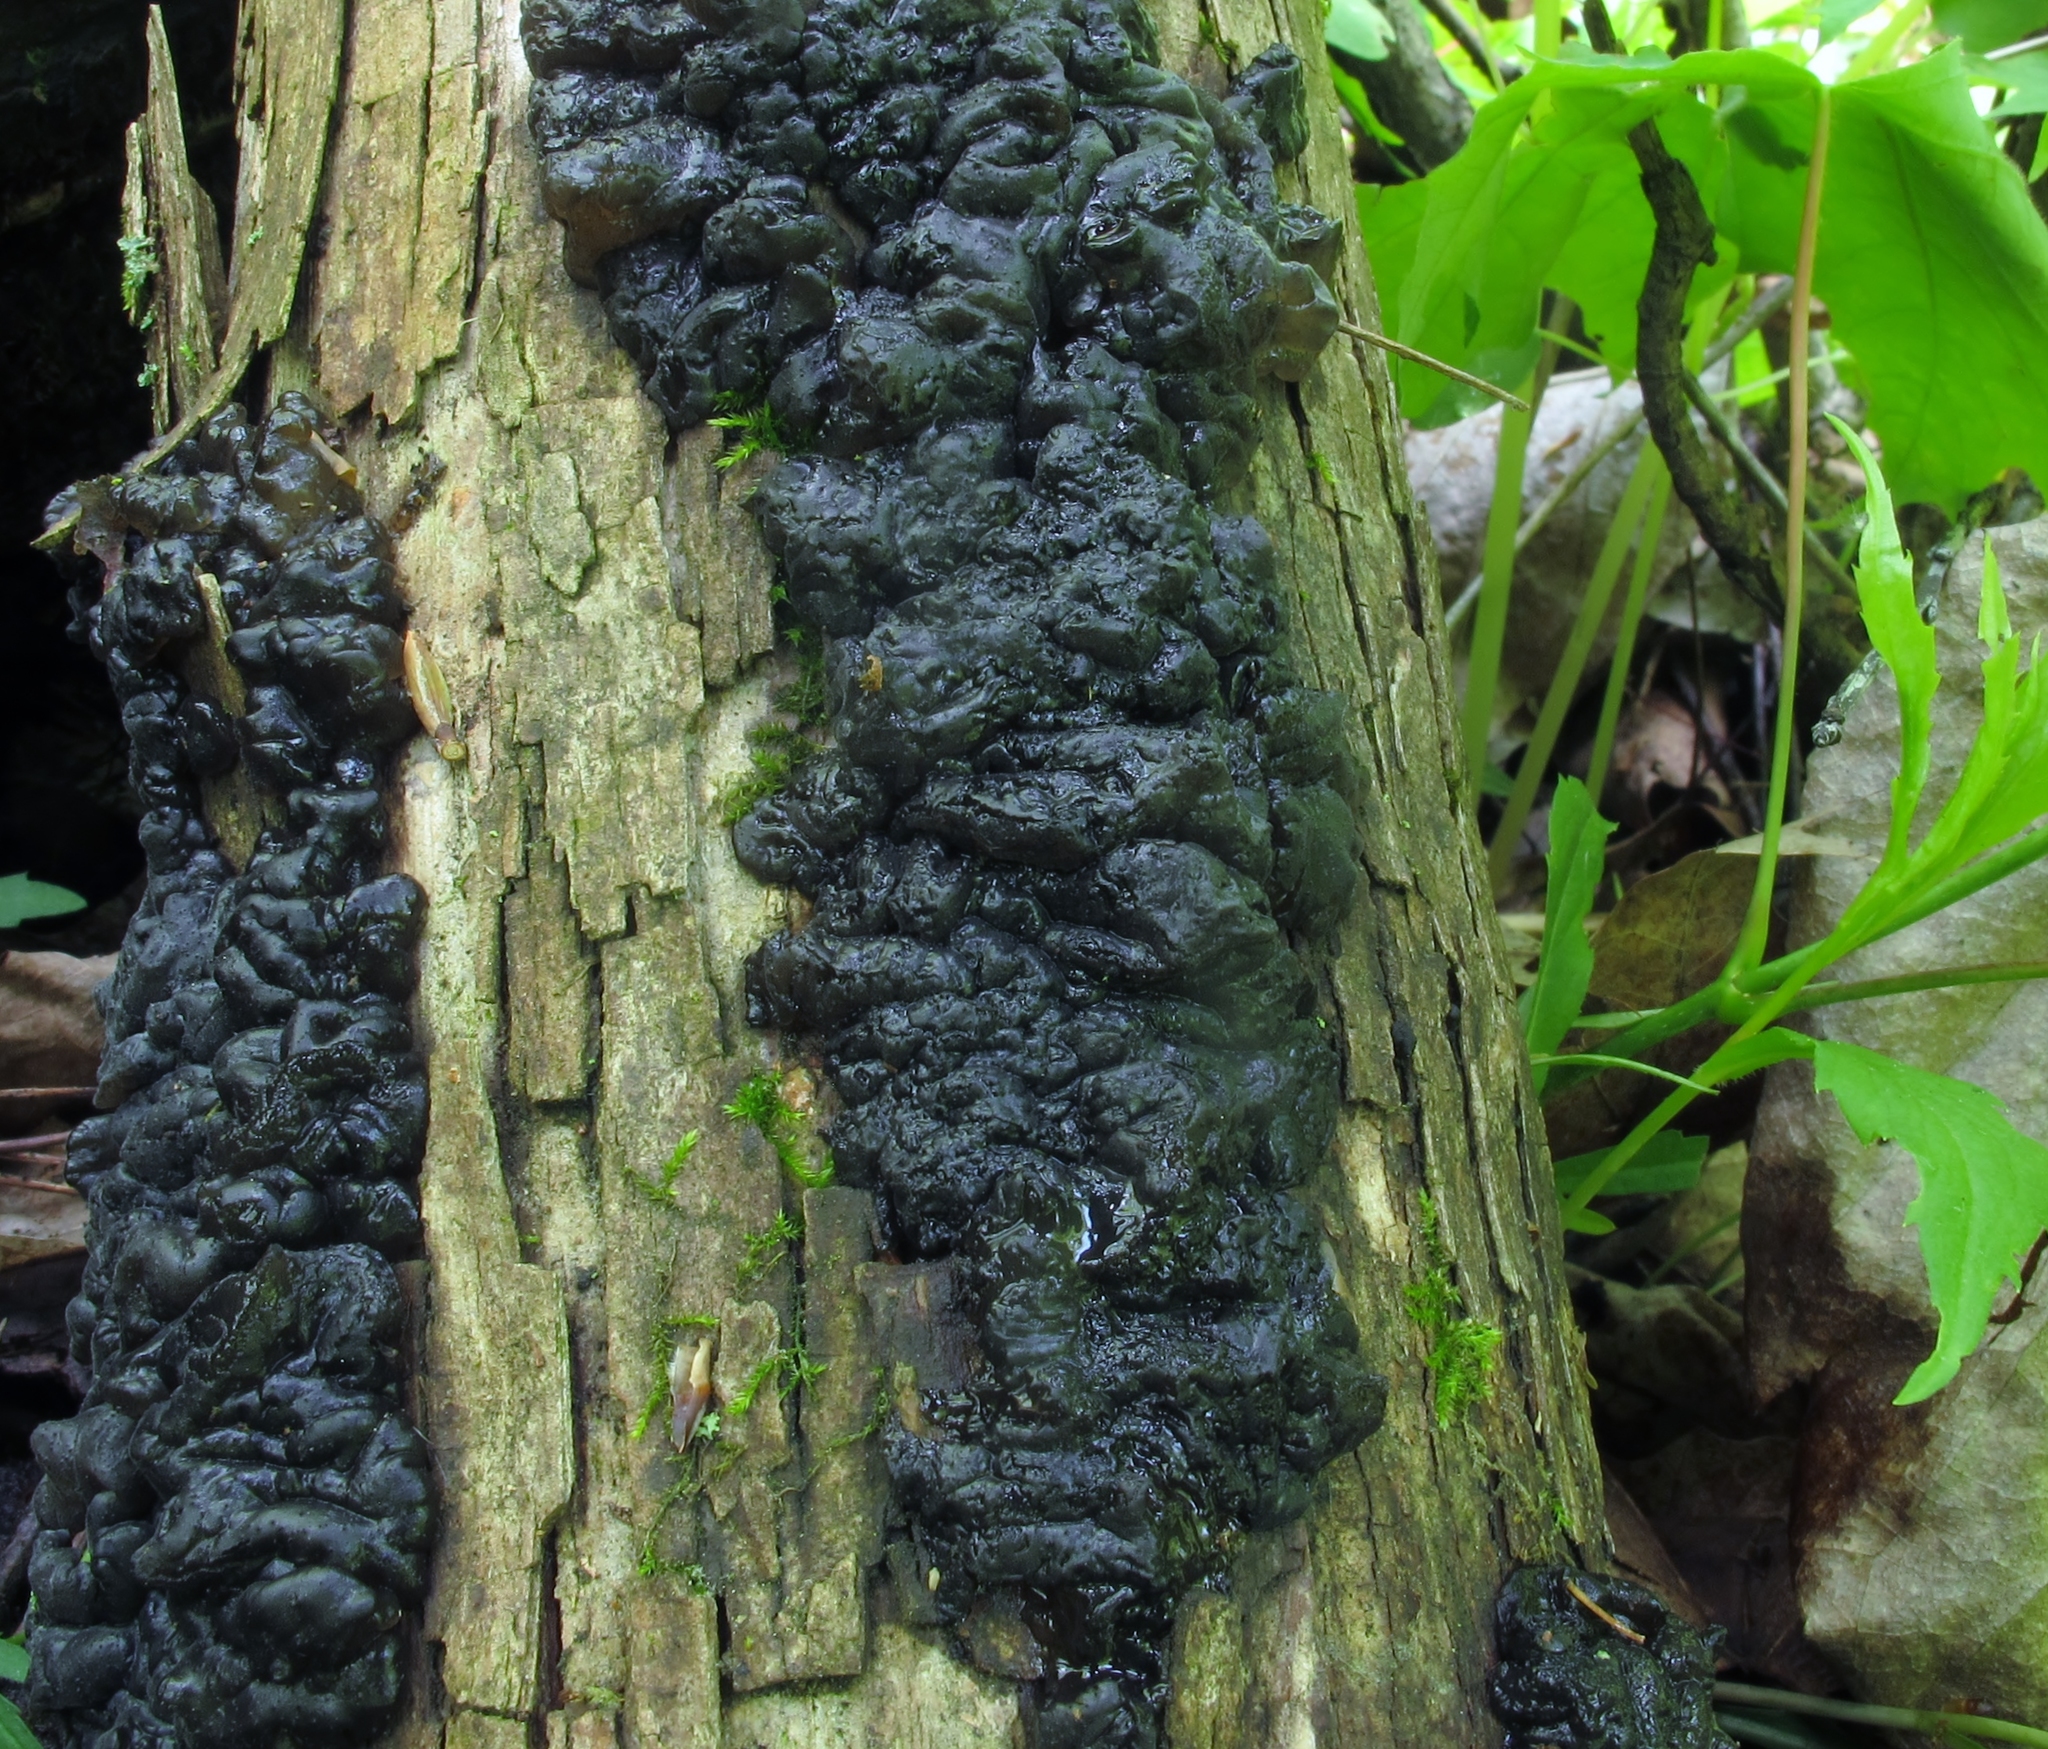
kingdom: Fungi
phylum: Basidiomycota
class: Agaricomycetes
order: Auriculariales
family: Auriculariaceae
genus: Exidia
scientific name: Exidia glandulosa
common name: Witches' butter
